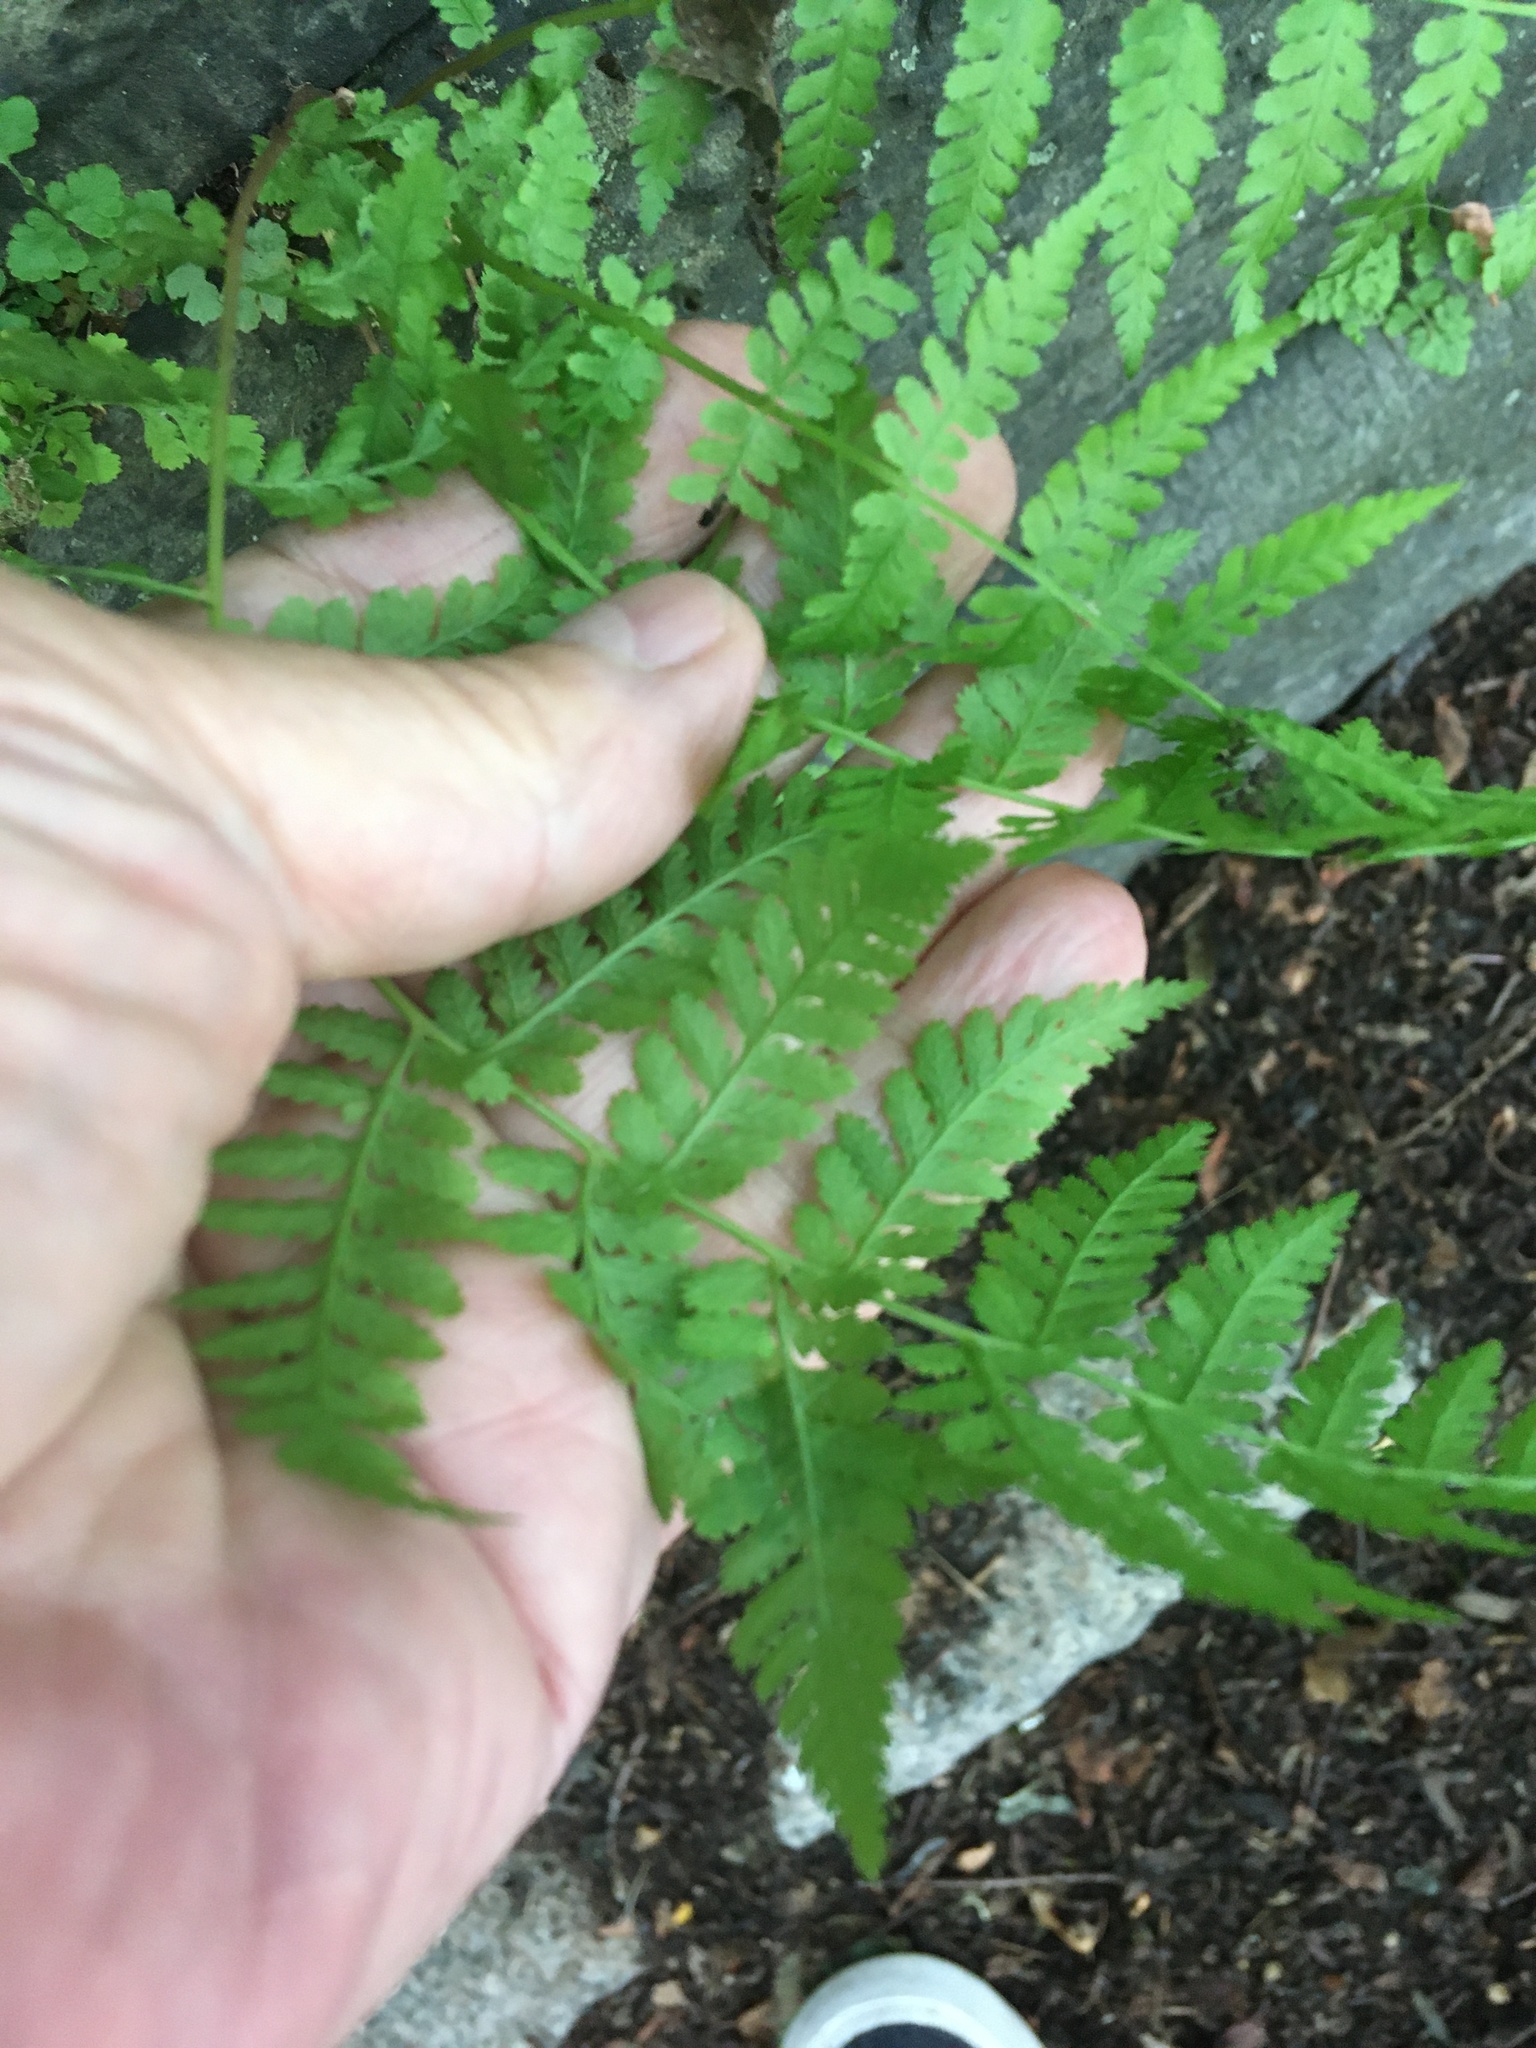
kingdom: Plantae
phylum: Tracheophyta
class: Polypodiopsida
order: Polypodiales
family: Athyriaceae
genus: Athyrium
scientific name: Athyrium angustum
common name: Northern lady fern
